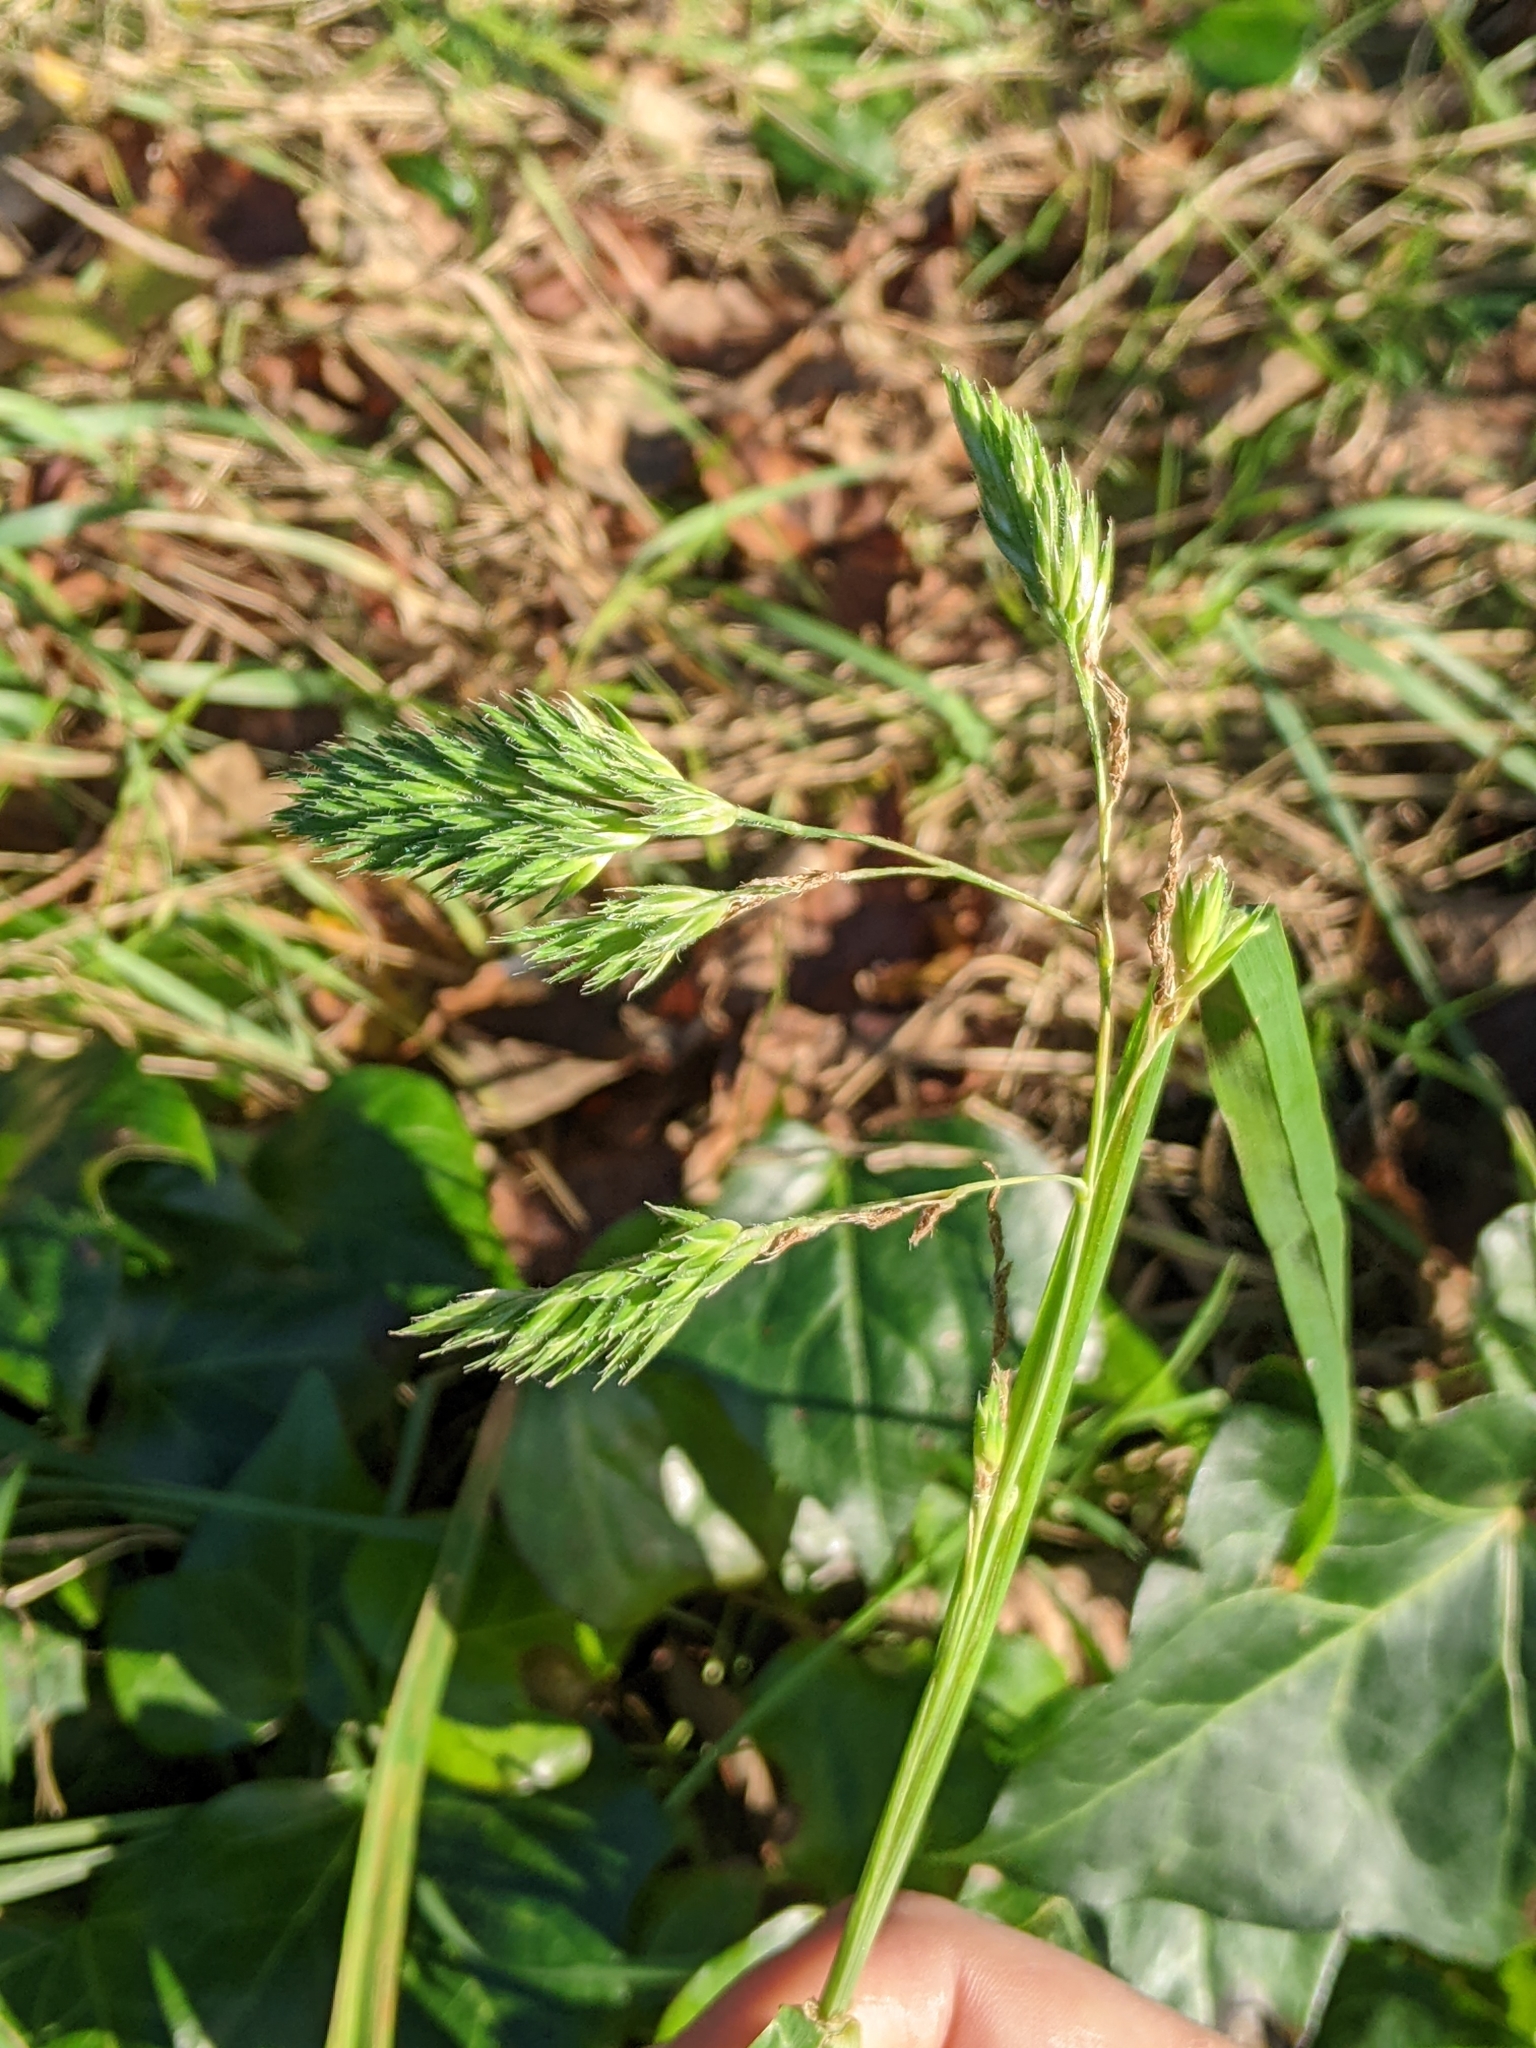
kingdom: Plantae
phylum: Tracheophyta
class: Liliopsida
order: Poales
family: Poaceae
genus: Dactylis
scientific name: Dactylis glomerata
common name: Orchardgrass
